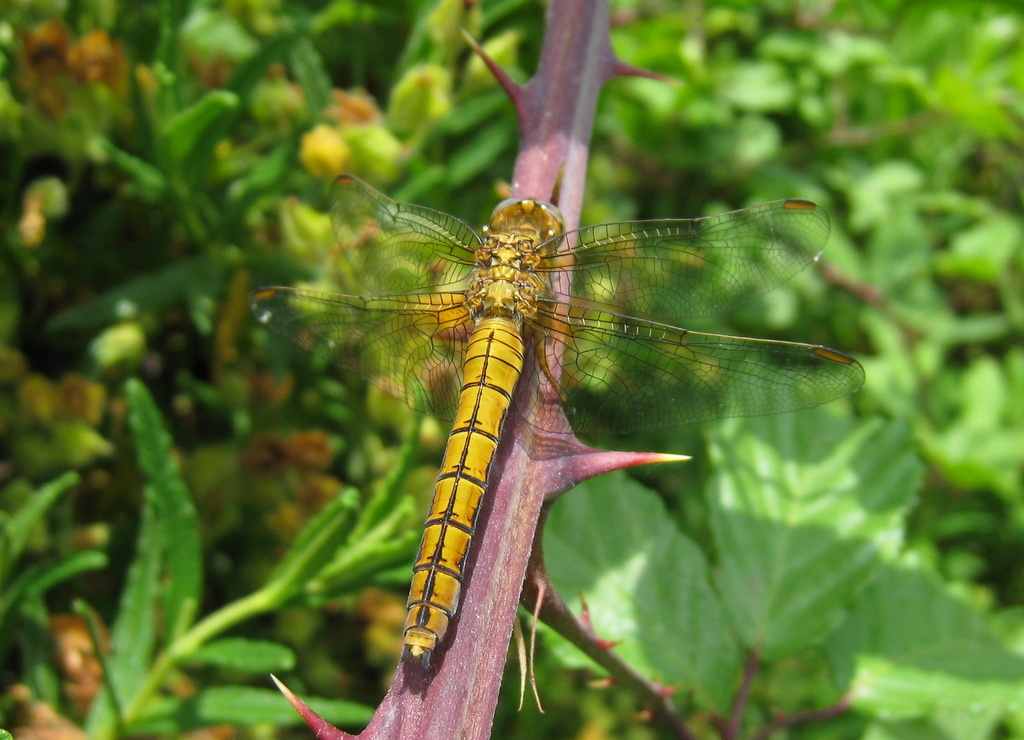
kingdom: Animalia
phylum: Arthropoda
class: Insecta
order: Odonata
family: Libellulidae
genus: Orthetrum
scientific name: Orthetrum coerulescens
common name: Keeled skimmer
